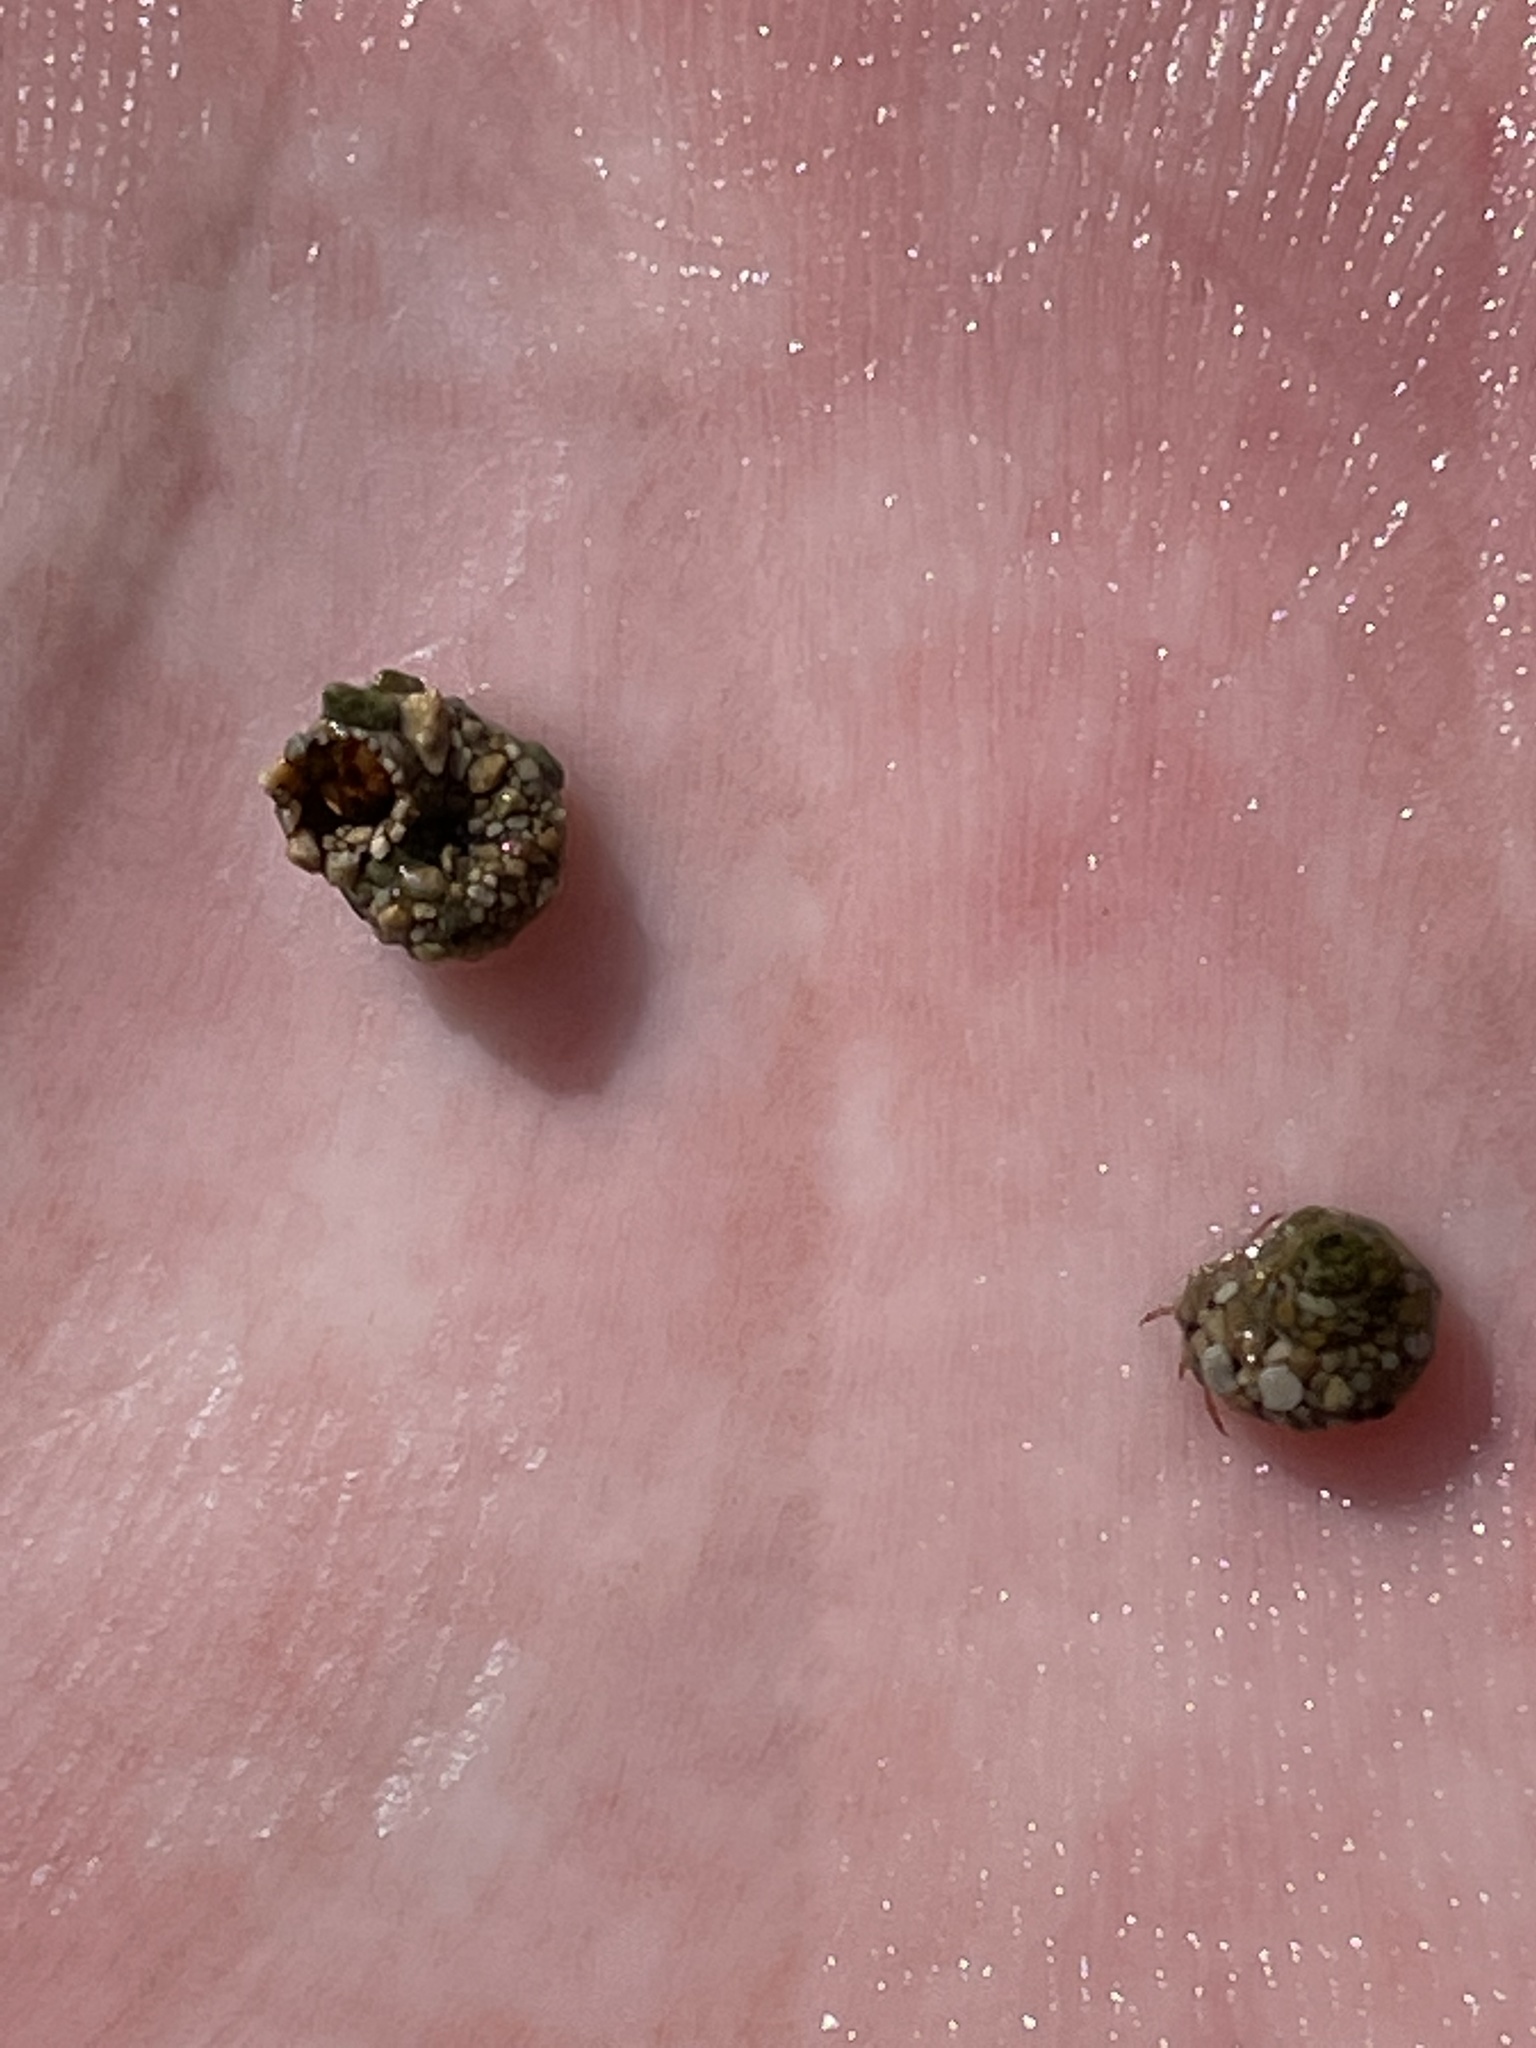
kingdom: Animalia
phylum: Arthropoda
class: Insecta
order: Trichoptera
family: Helicopsychidae
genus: Helicopsyche
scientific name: Helicopsyche
